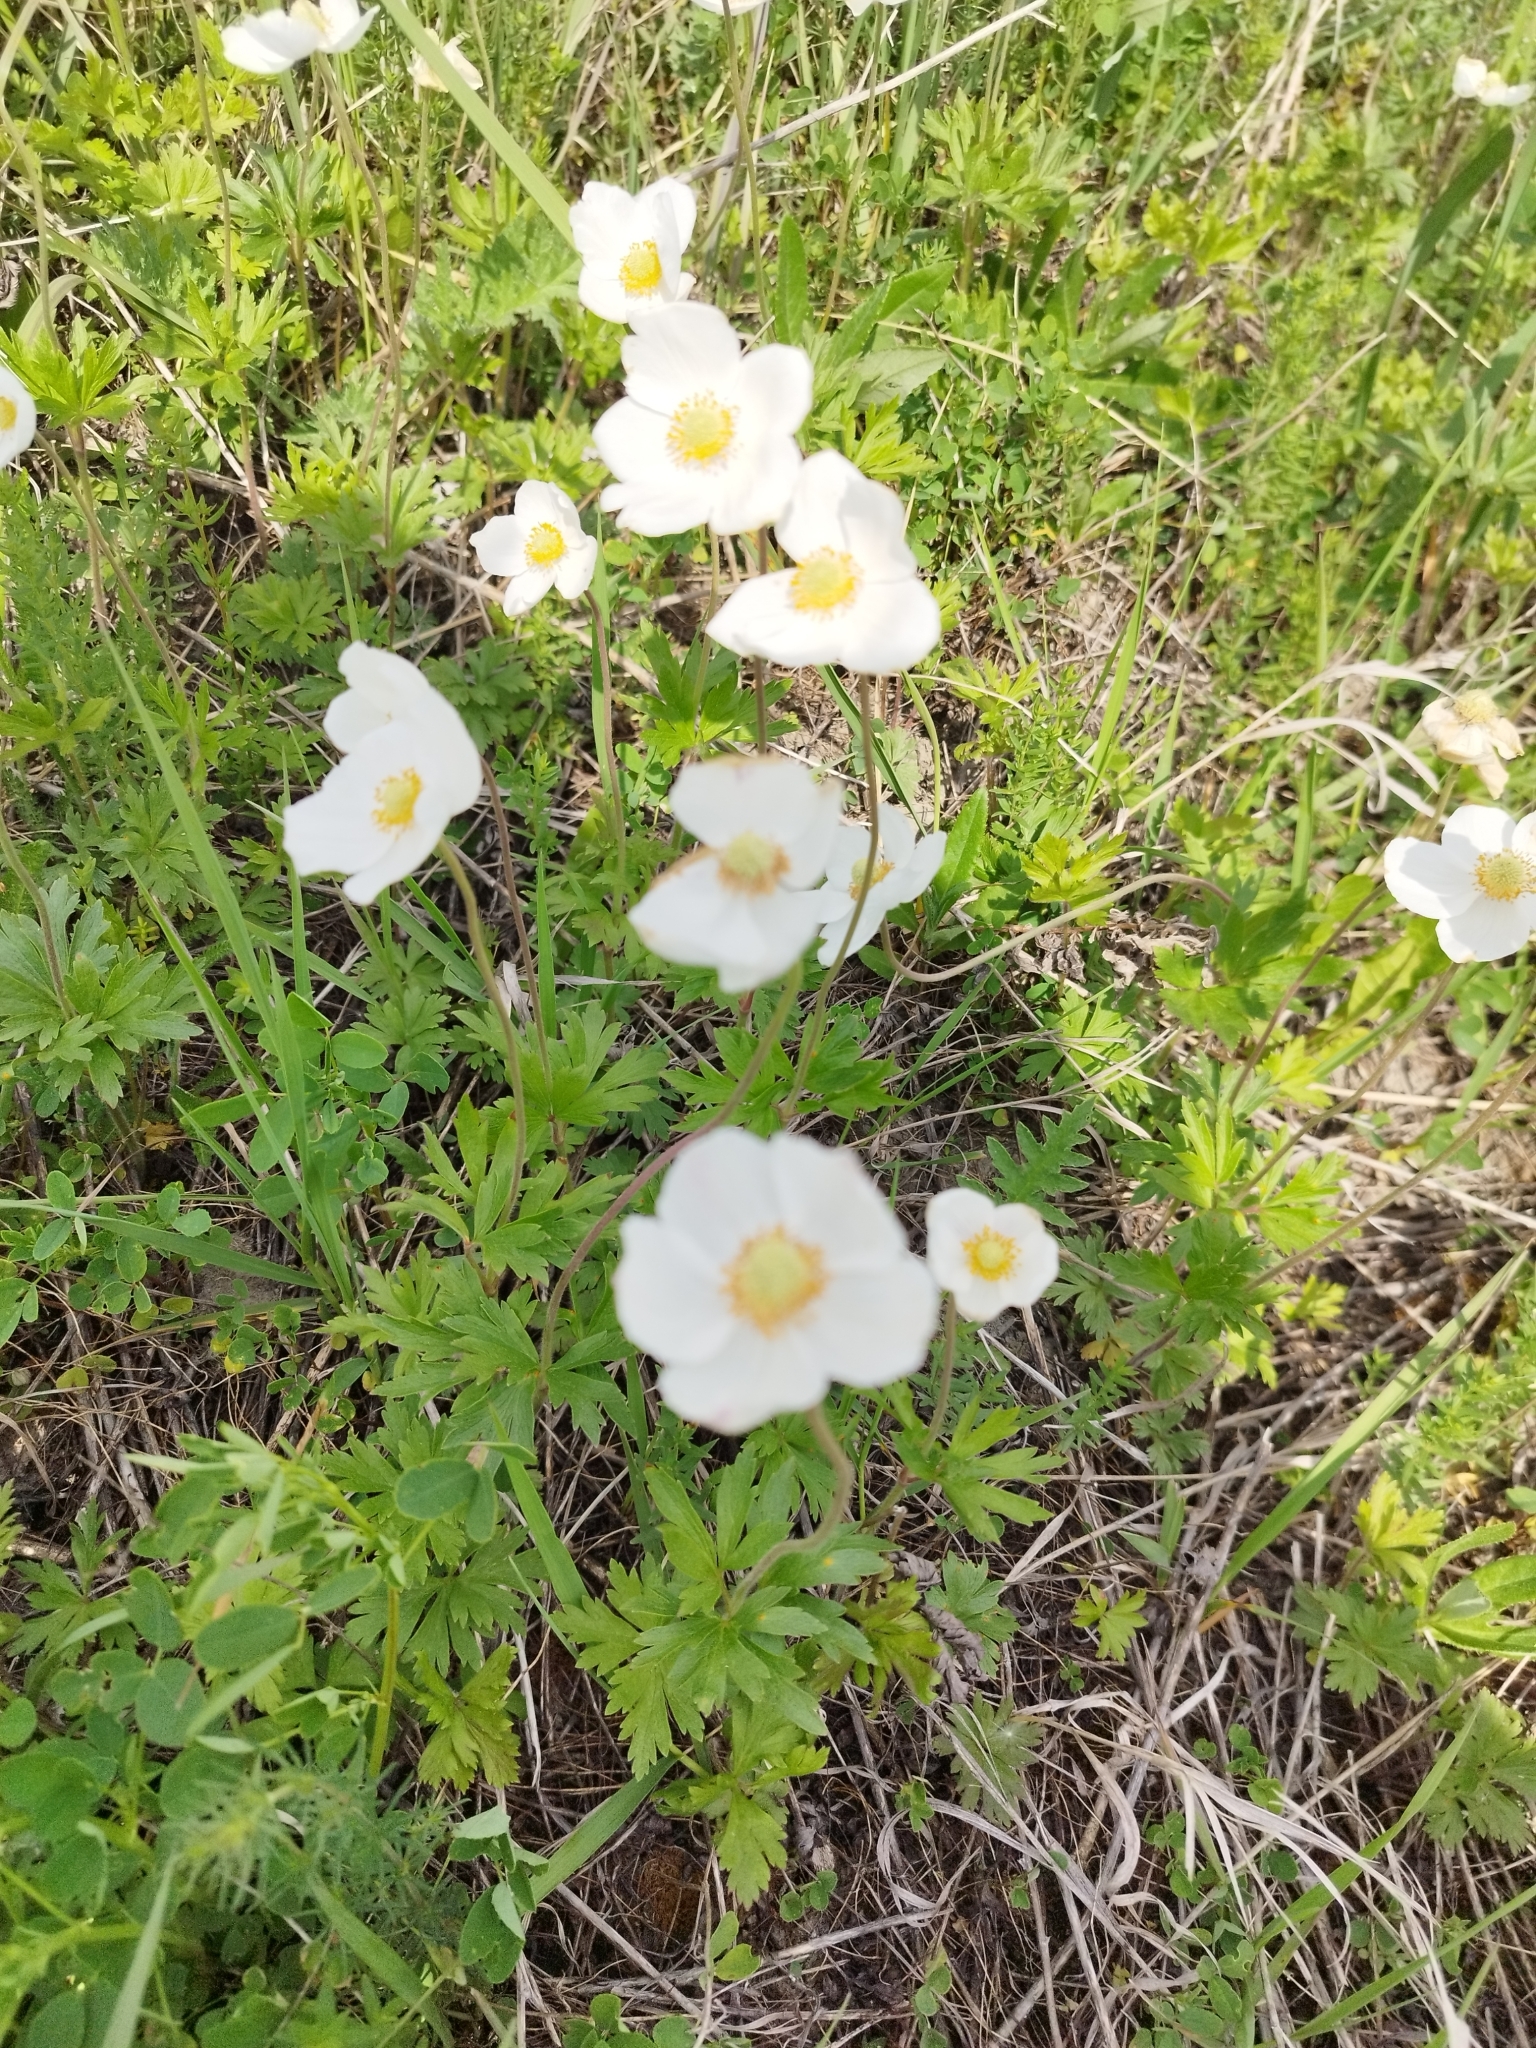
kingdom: Plantae
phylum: Tracheophyta
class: Magnoliopsida
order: Ranunculales
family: Ranunculaceae
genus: Anemone
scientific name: Anemone sylvestris
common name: Snowdrop anemone
